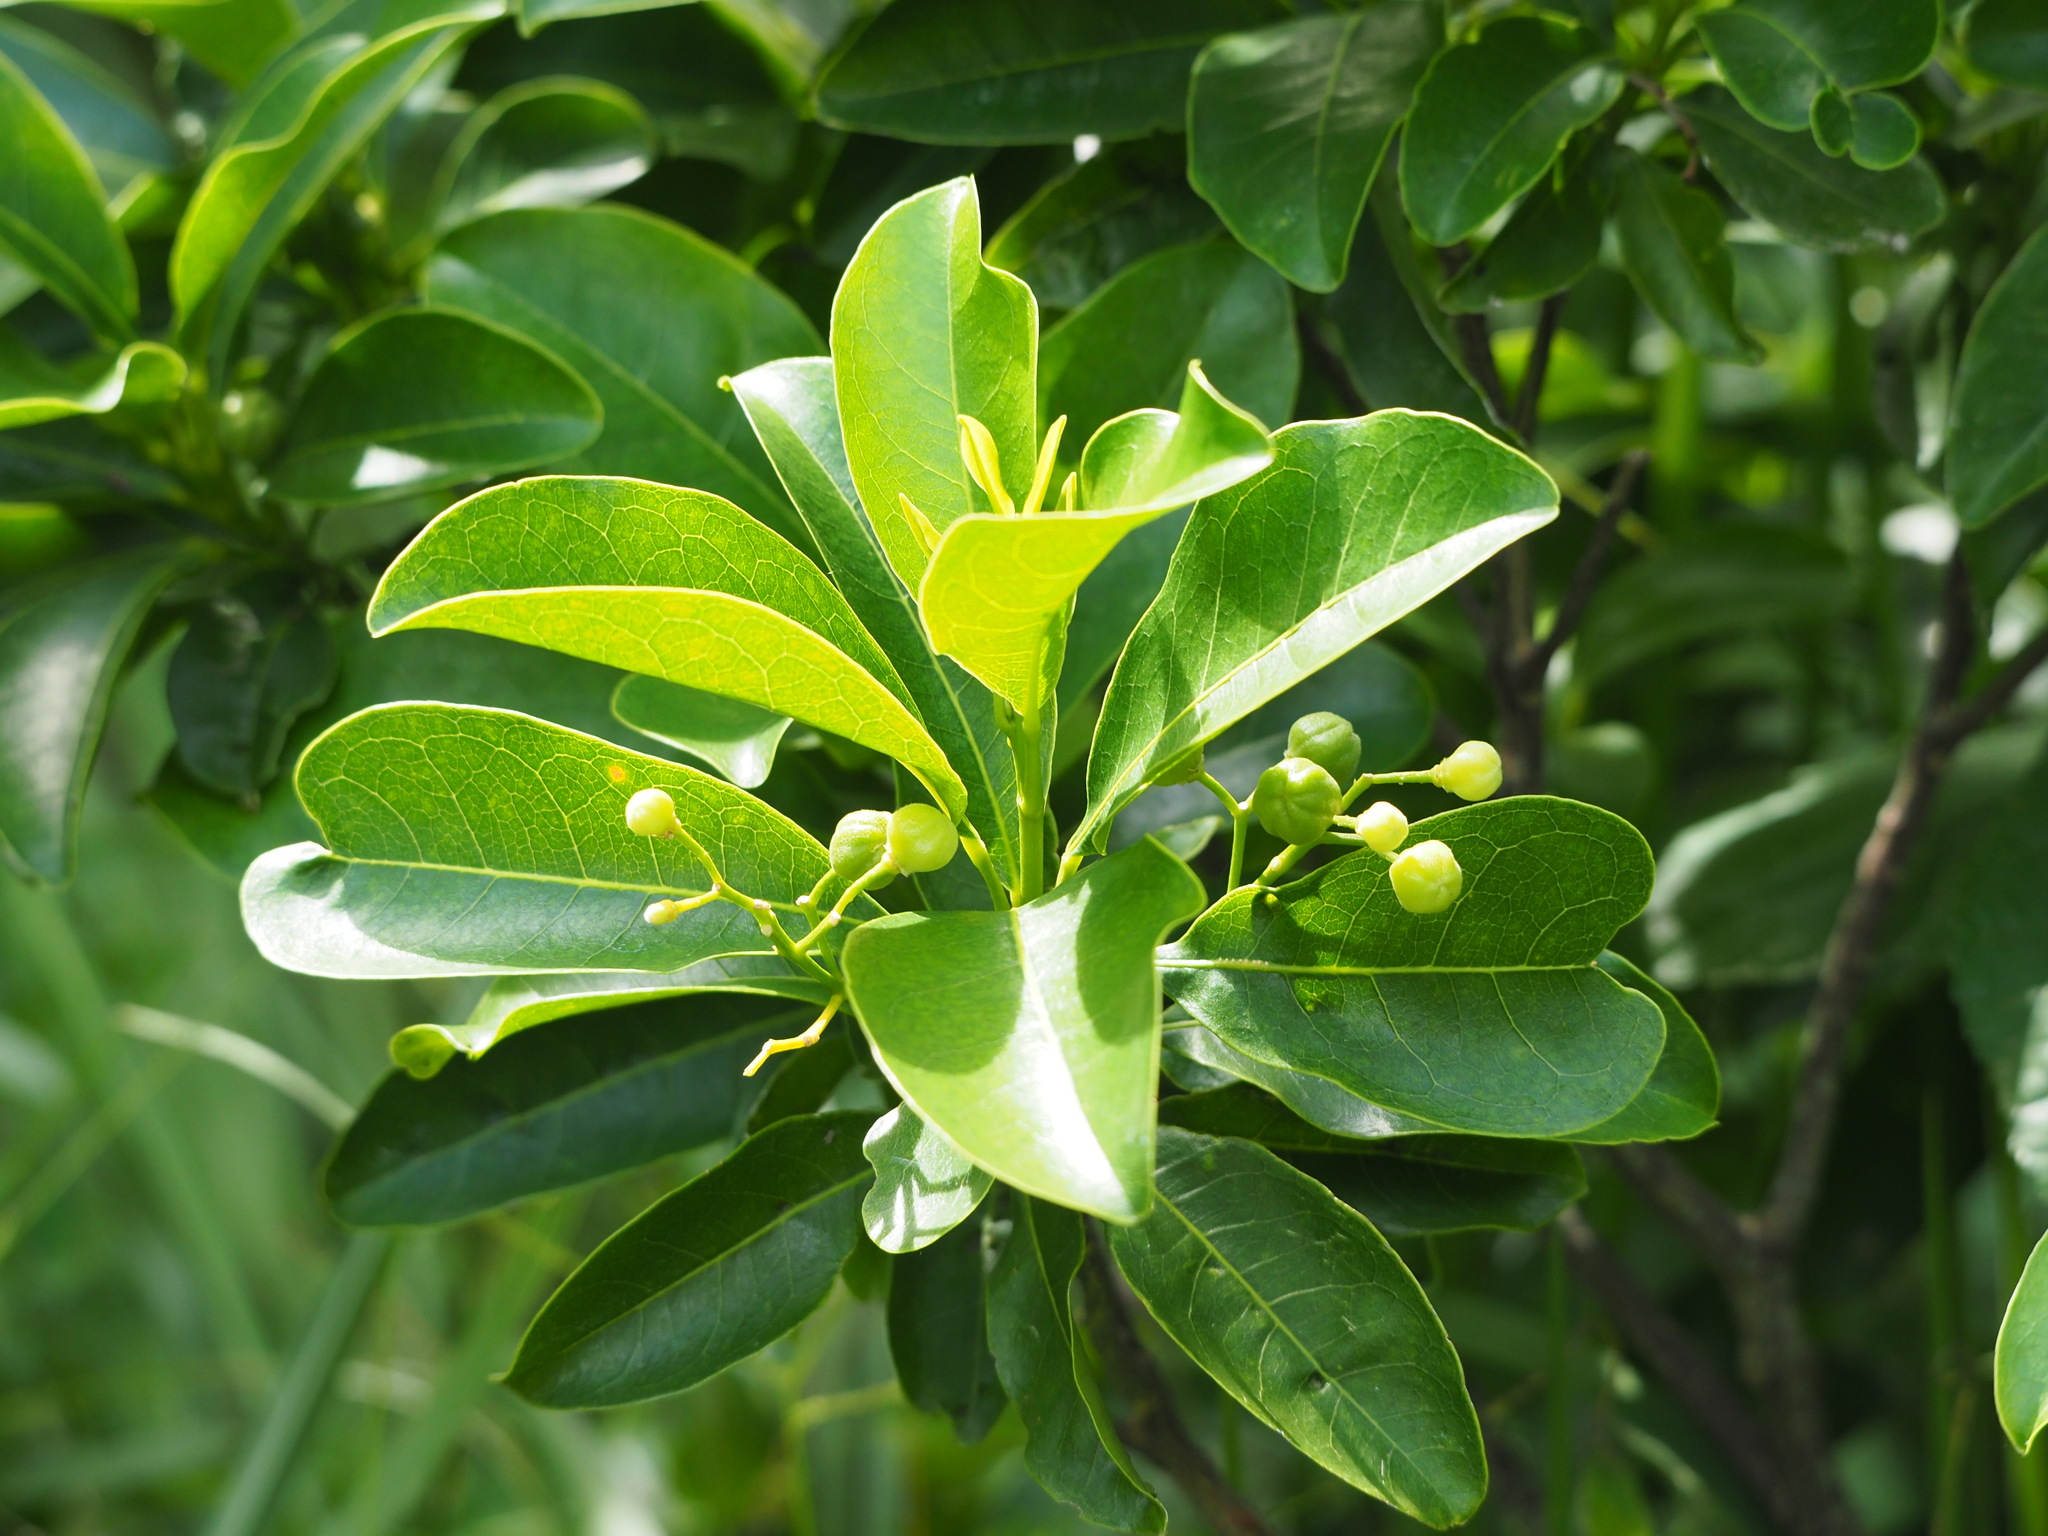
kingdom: Plantae
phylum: Tracheophyta
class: Magnoliopsida
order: Sapindales
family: Rutaceae
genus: Acronychia
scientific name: Acronychia pedunculata
